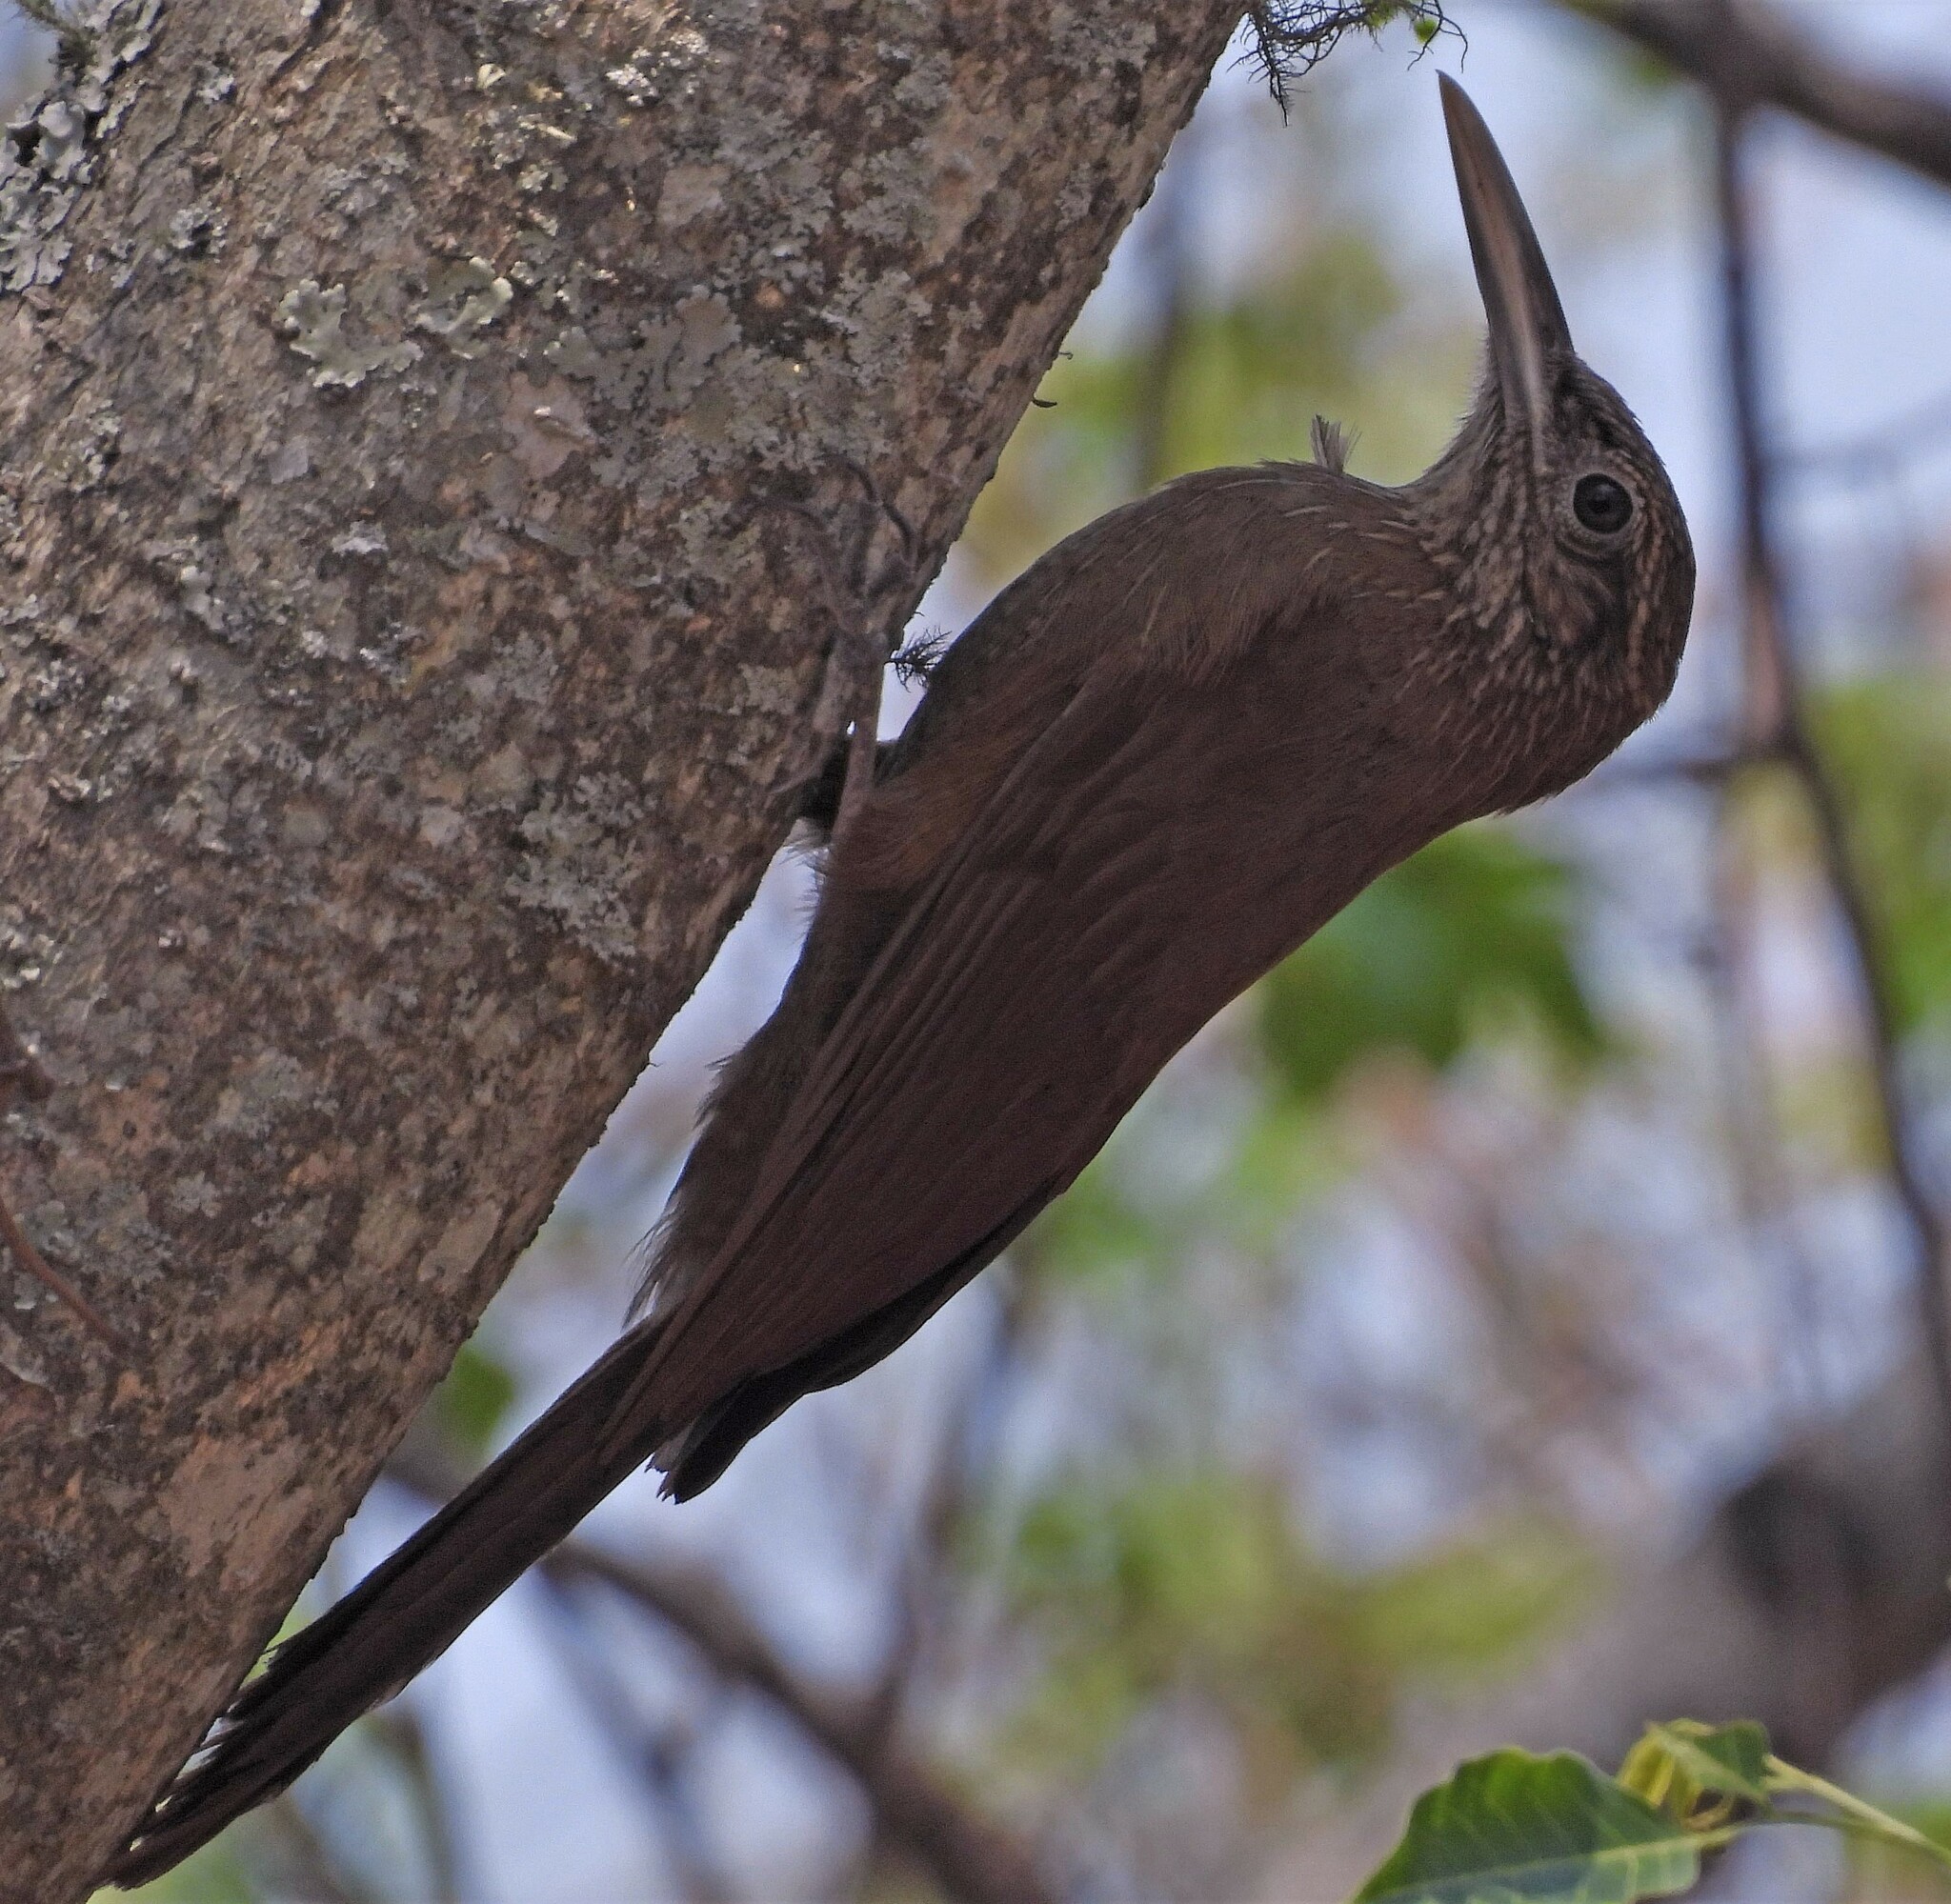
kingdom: Animalia
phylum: Chordata
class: Aves
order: Passeriformes
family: Furnariidae
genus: Dendrocolaptes
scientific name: Dendrocolaptes picumnus
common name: Black-banded woodcreeper
